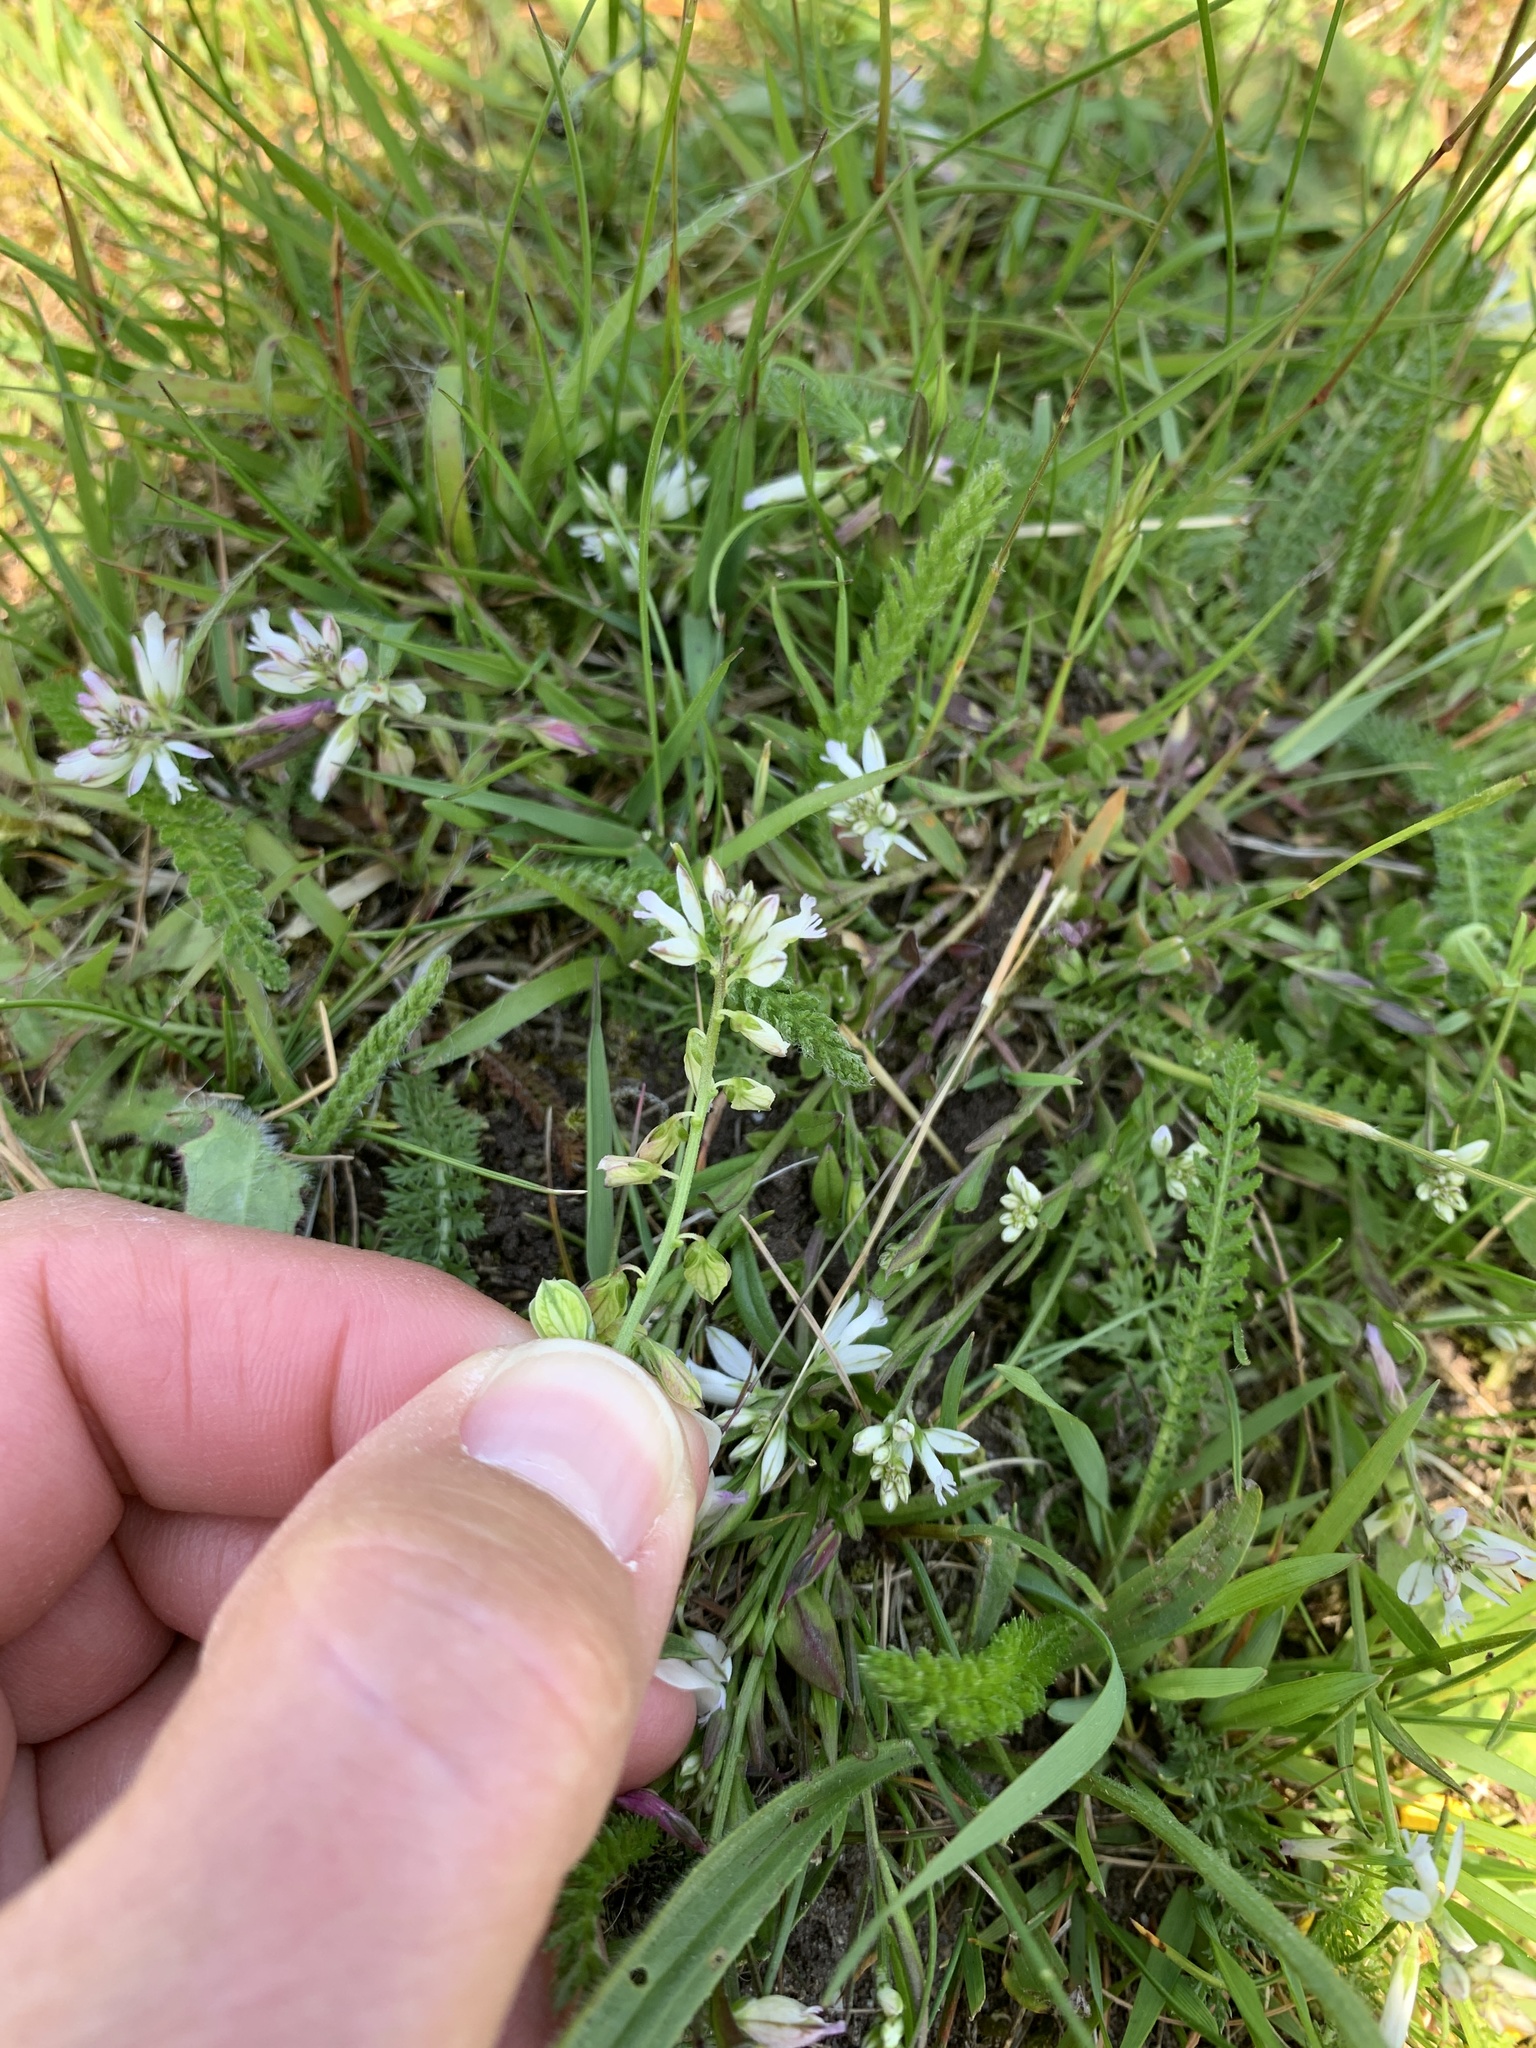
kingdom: Plantae
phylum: Tracheophyta
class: Magnoliopsida
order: Fabales
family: Polygalaceae
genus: Polygala
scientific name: Polygala vulgaris
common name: Common milkwort
